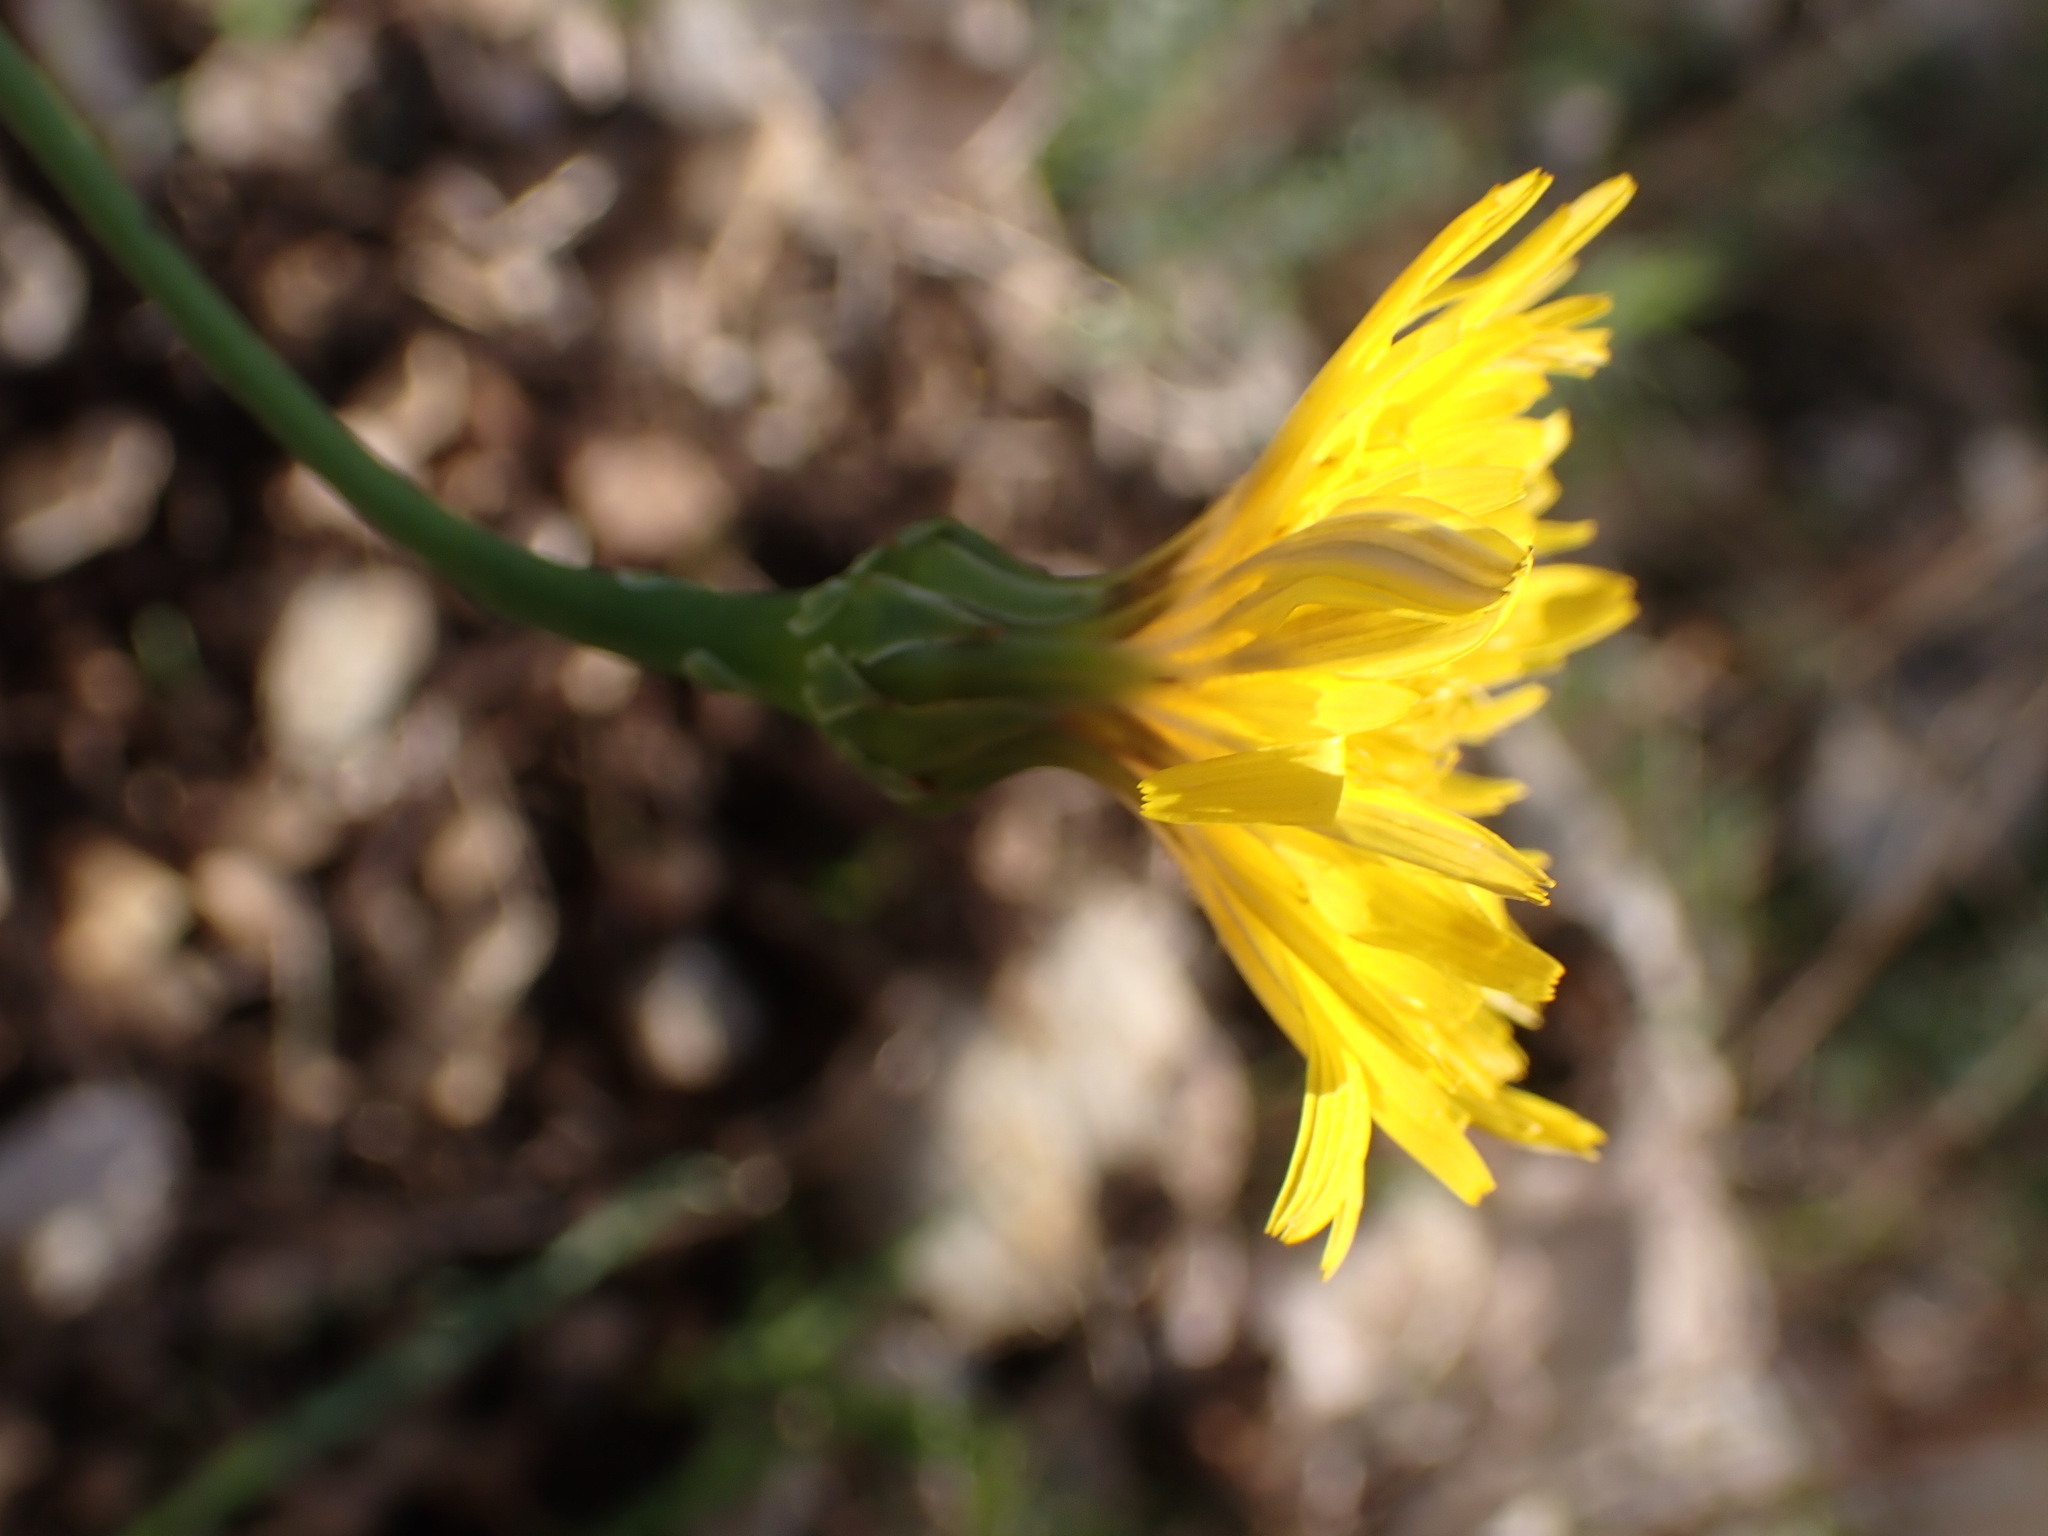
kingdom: Plantae
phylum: Tracheophyta
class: Magnoliopsida
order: Asterales
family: Asteraceae
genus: Reichardia
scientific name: Reichardia picroides
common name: Common brighteyes
